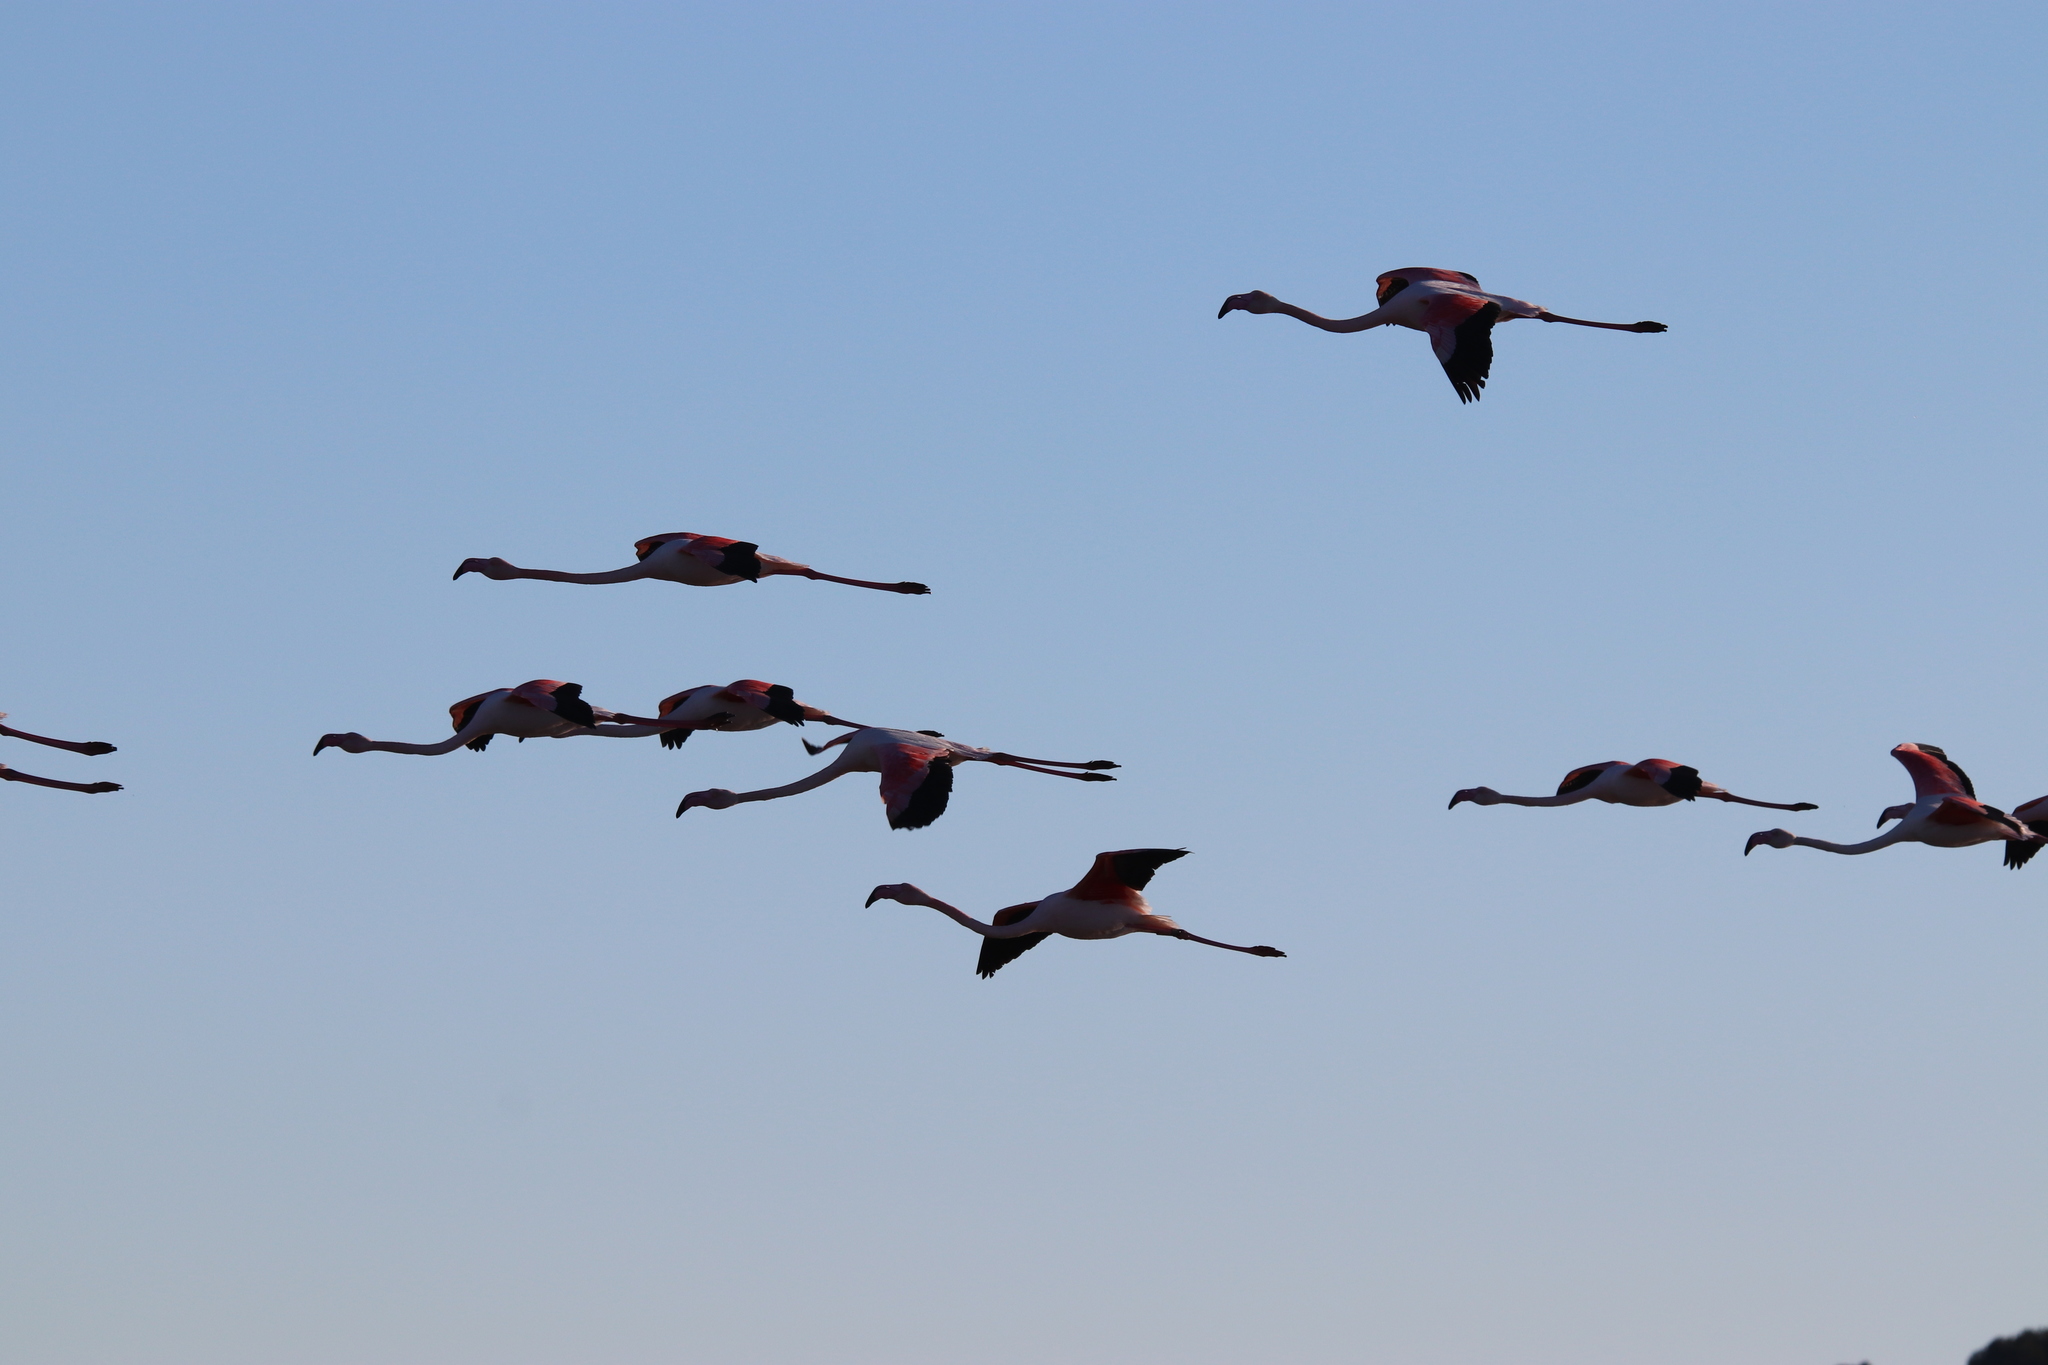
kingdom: Animalia
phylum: Chordata
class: Aves
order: Phoenicopteriformes
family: Phoenicopteridae
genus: Phoenicopterus
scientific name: Phoenicopterus roseus
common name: Greater flamingo
